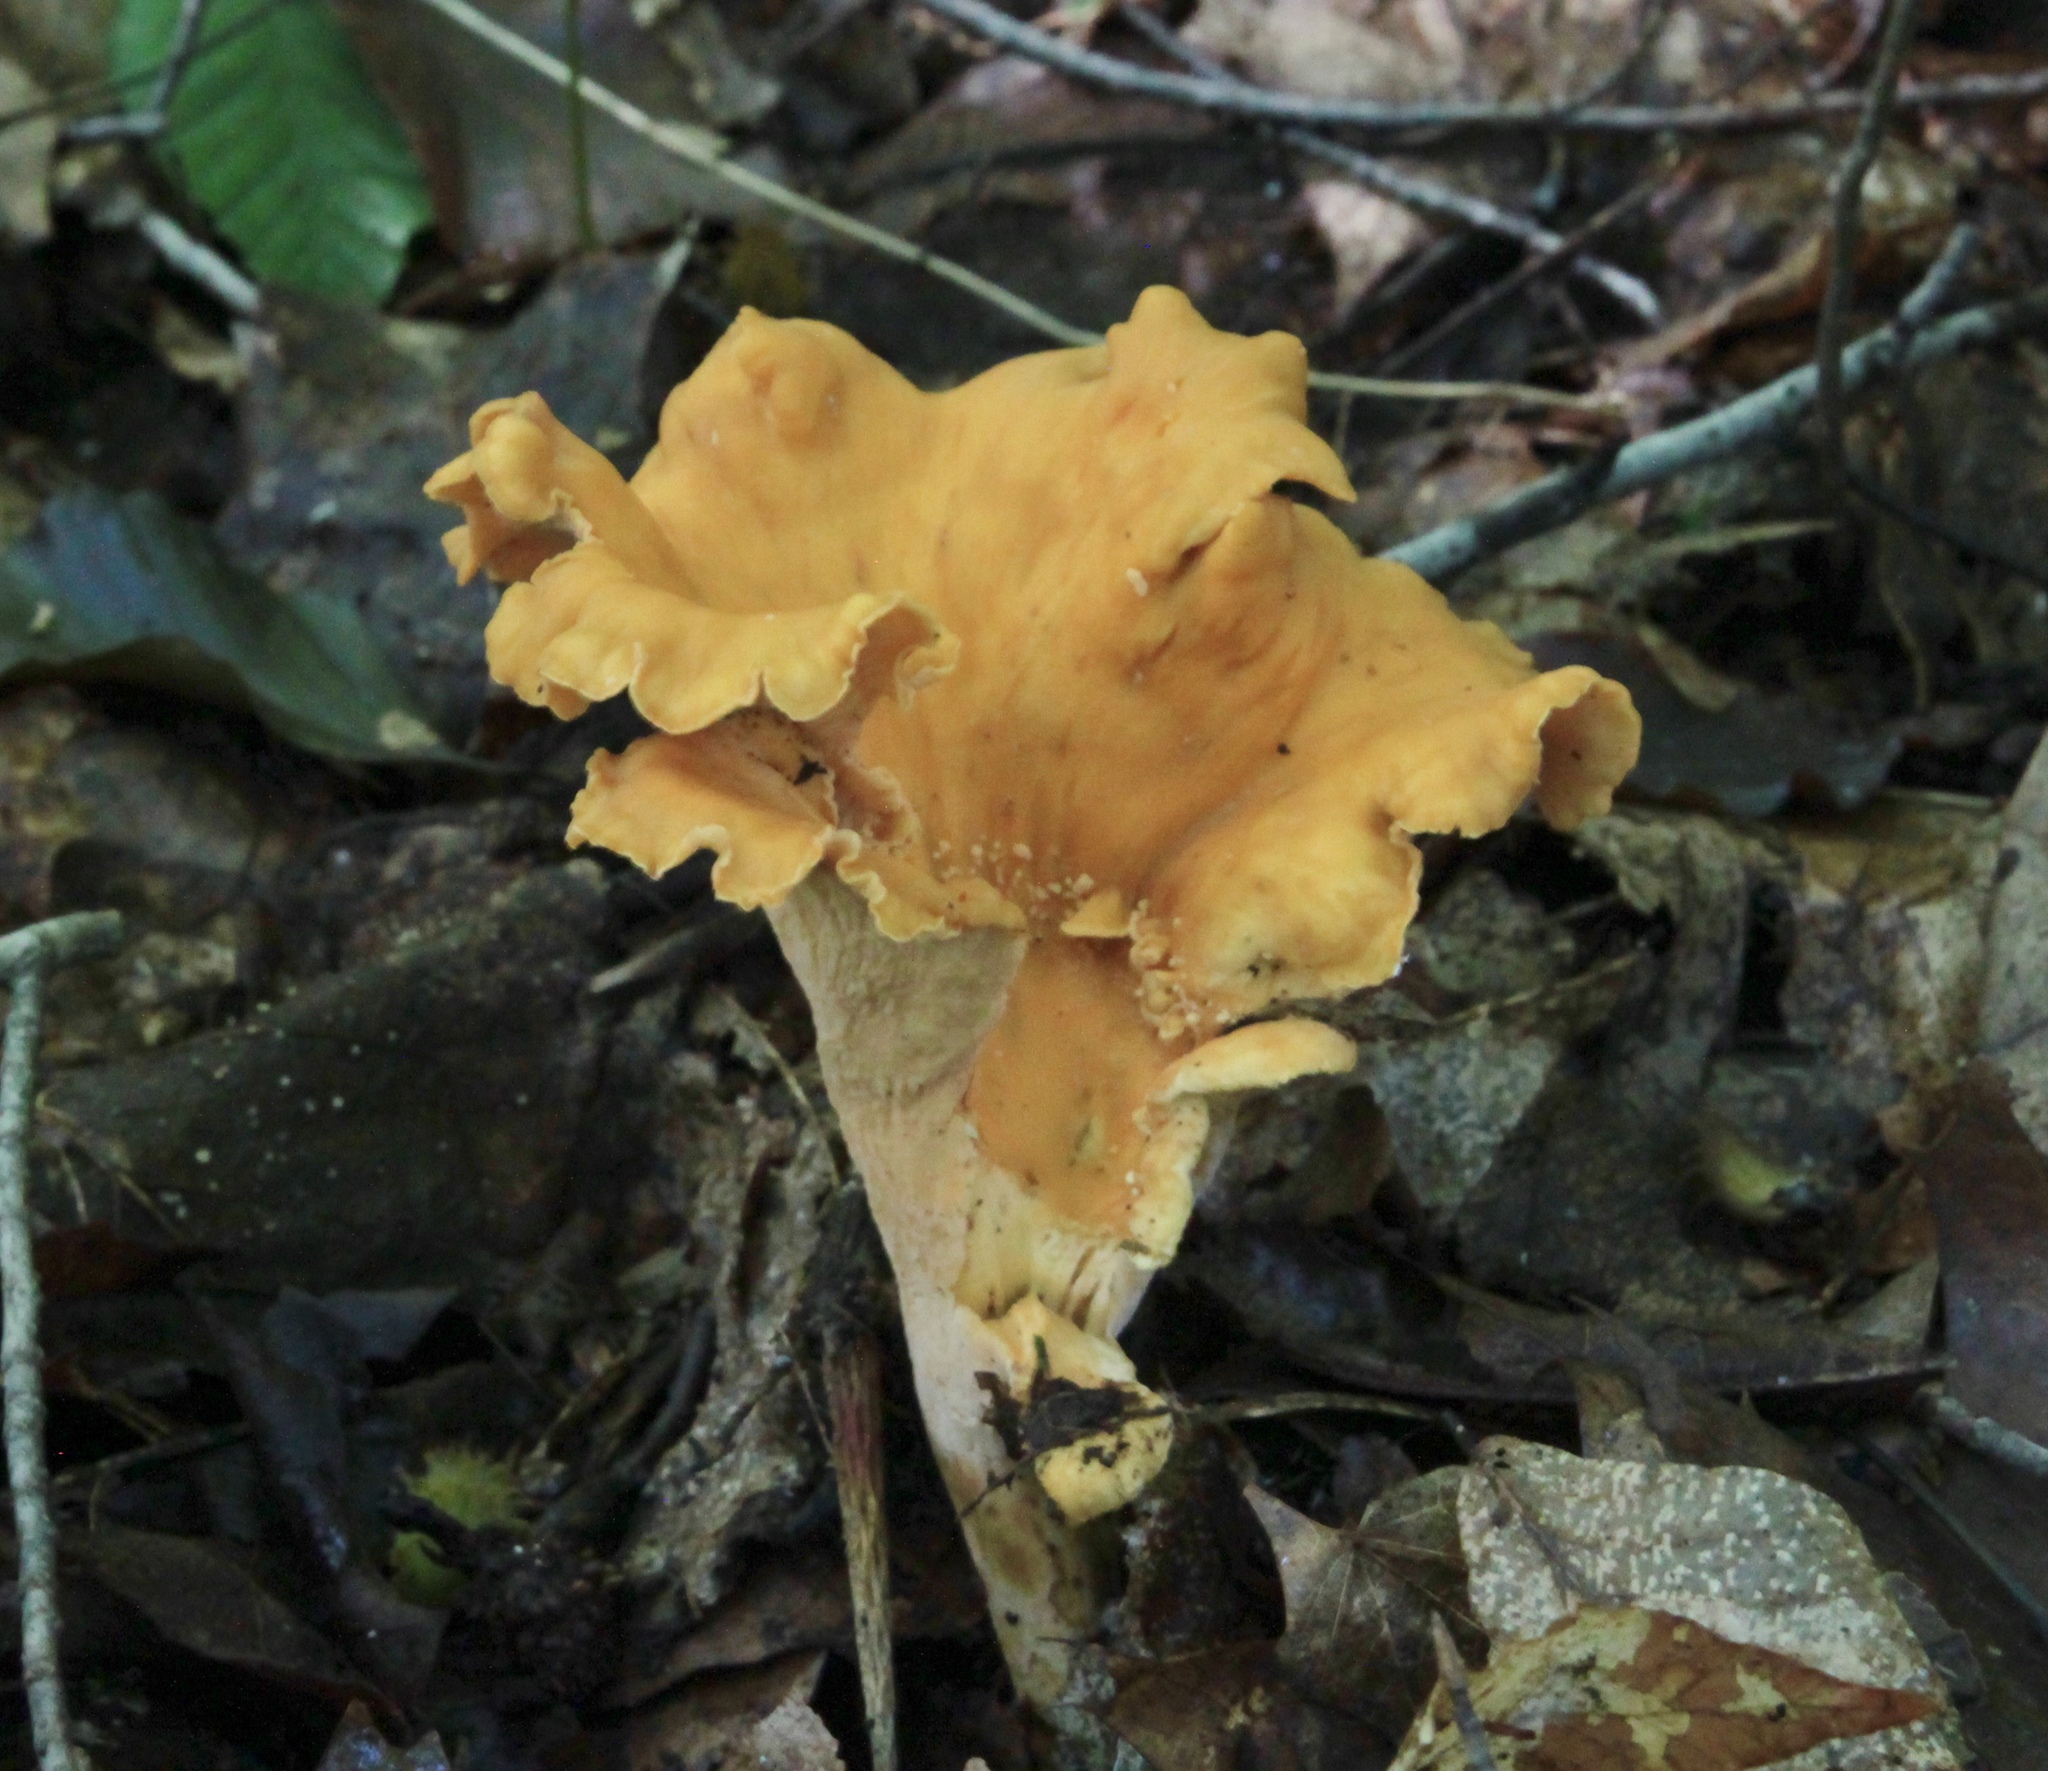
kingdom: Fungi
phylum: Basidiomycota
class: Agaricomycetes
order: Cantharellales
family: Hydnaceae
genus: Cantharellus
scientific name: Cantharellus lateritius
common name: Smooth chanterelle
